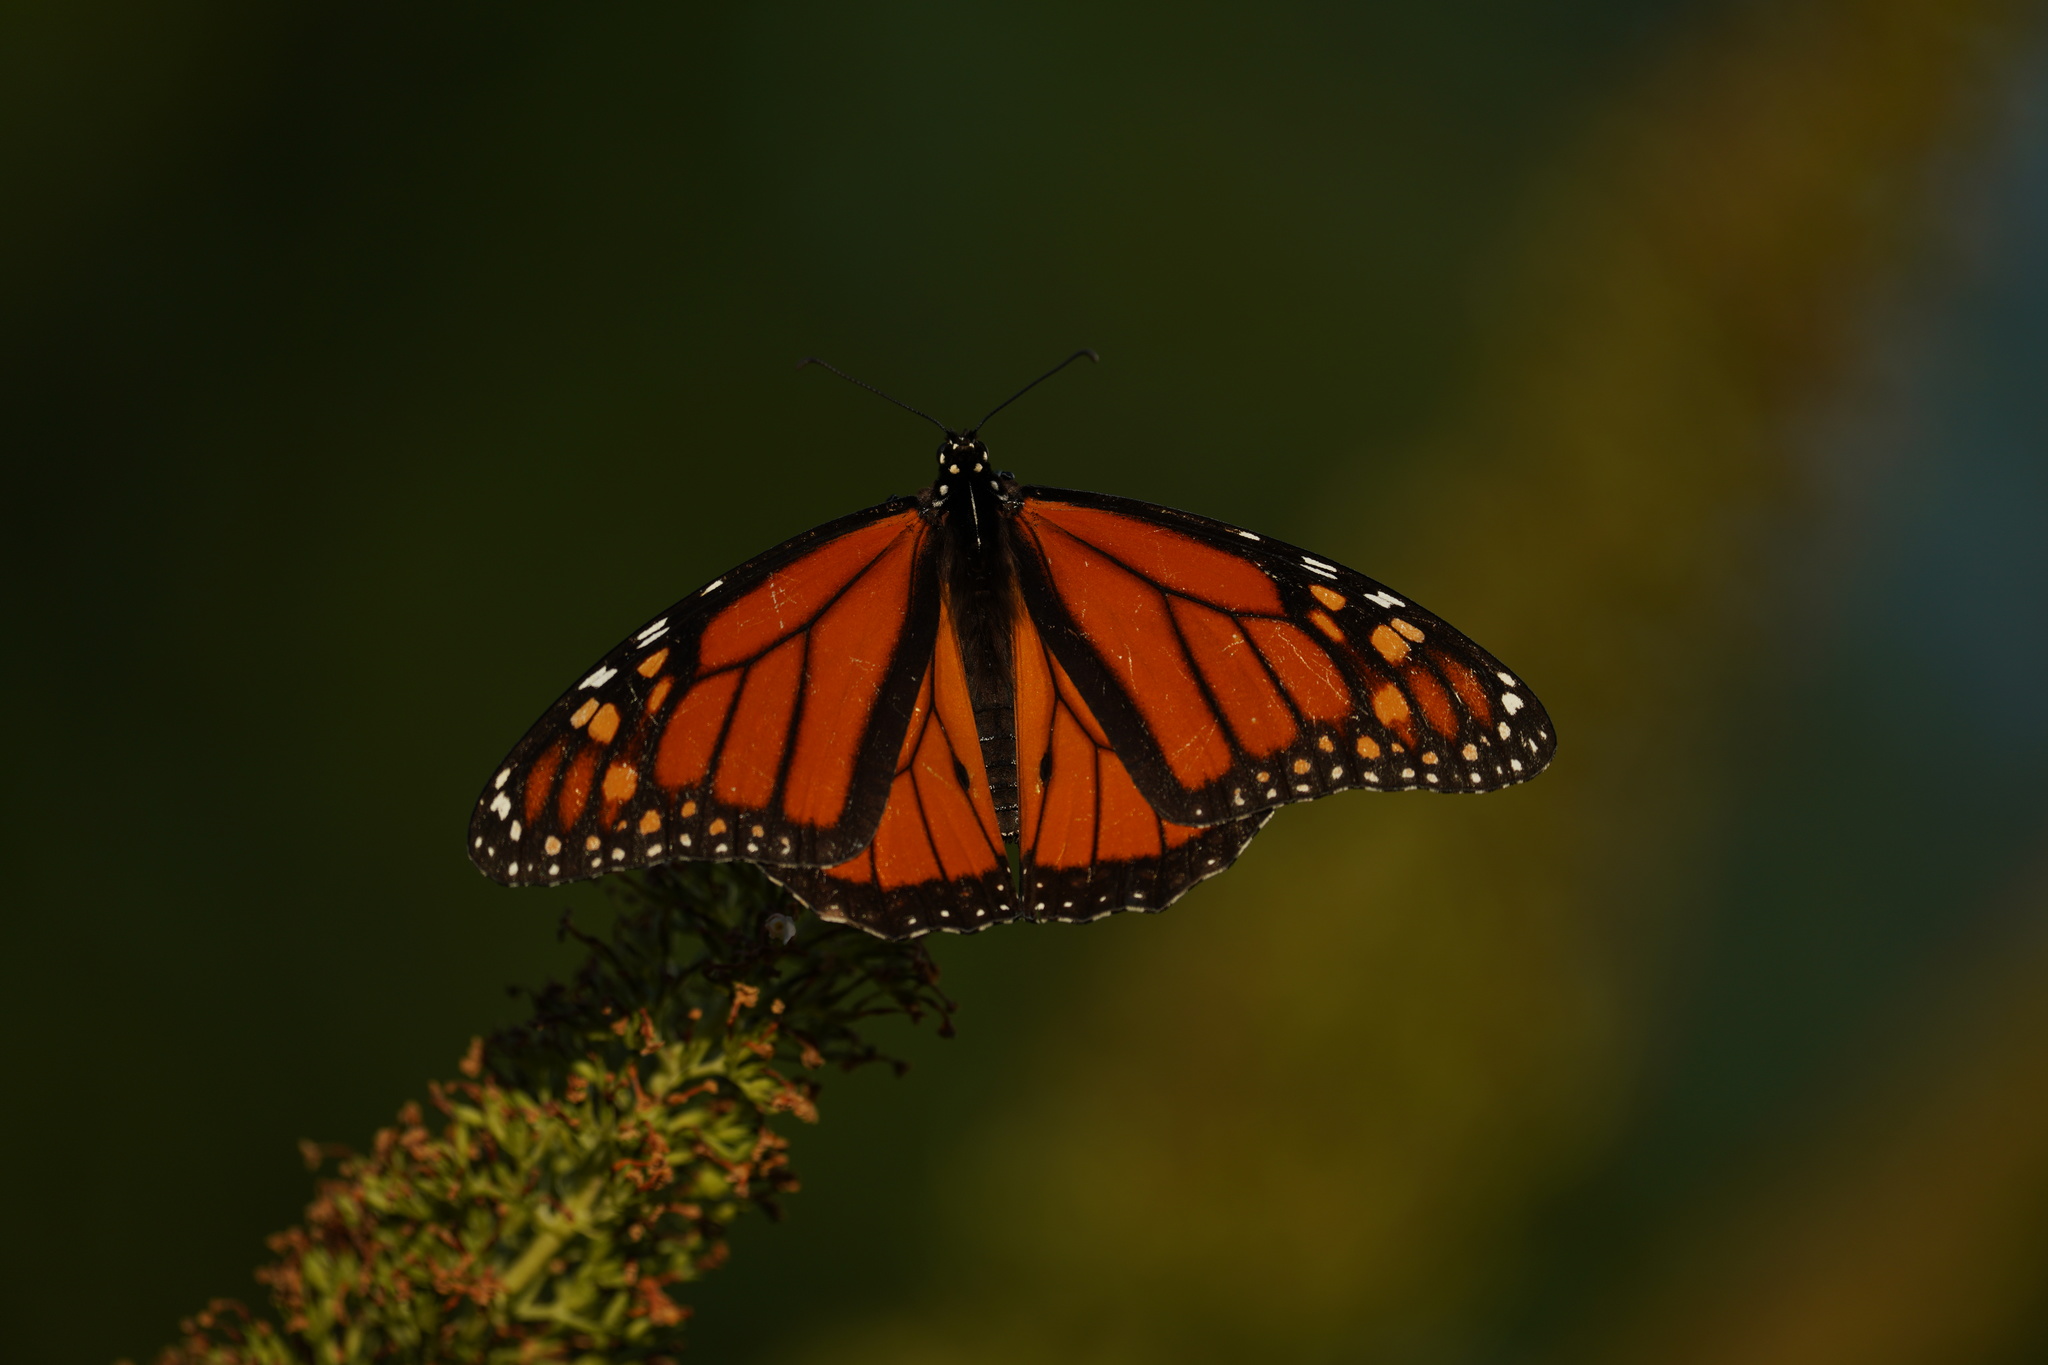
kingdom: Animalia
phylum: Arthropoda
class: Insecta
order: Lepidoptera
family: Nymphalidae
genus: Danaus
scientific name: Danaus plexippus
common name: Monarch
